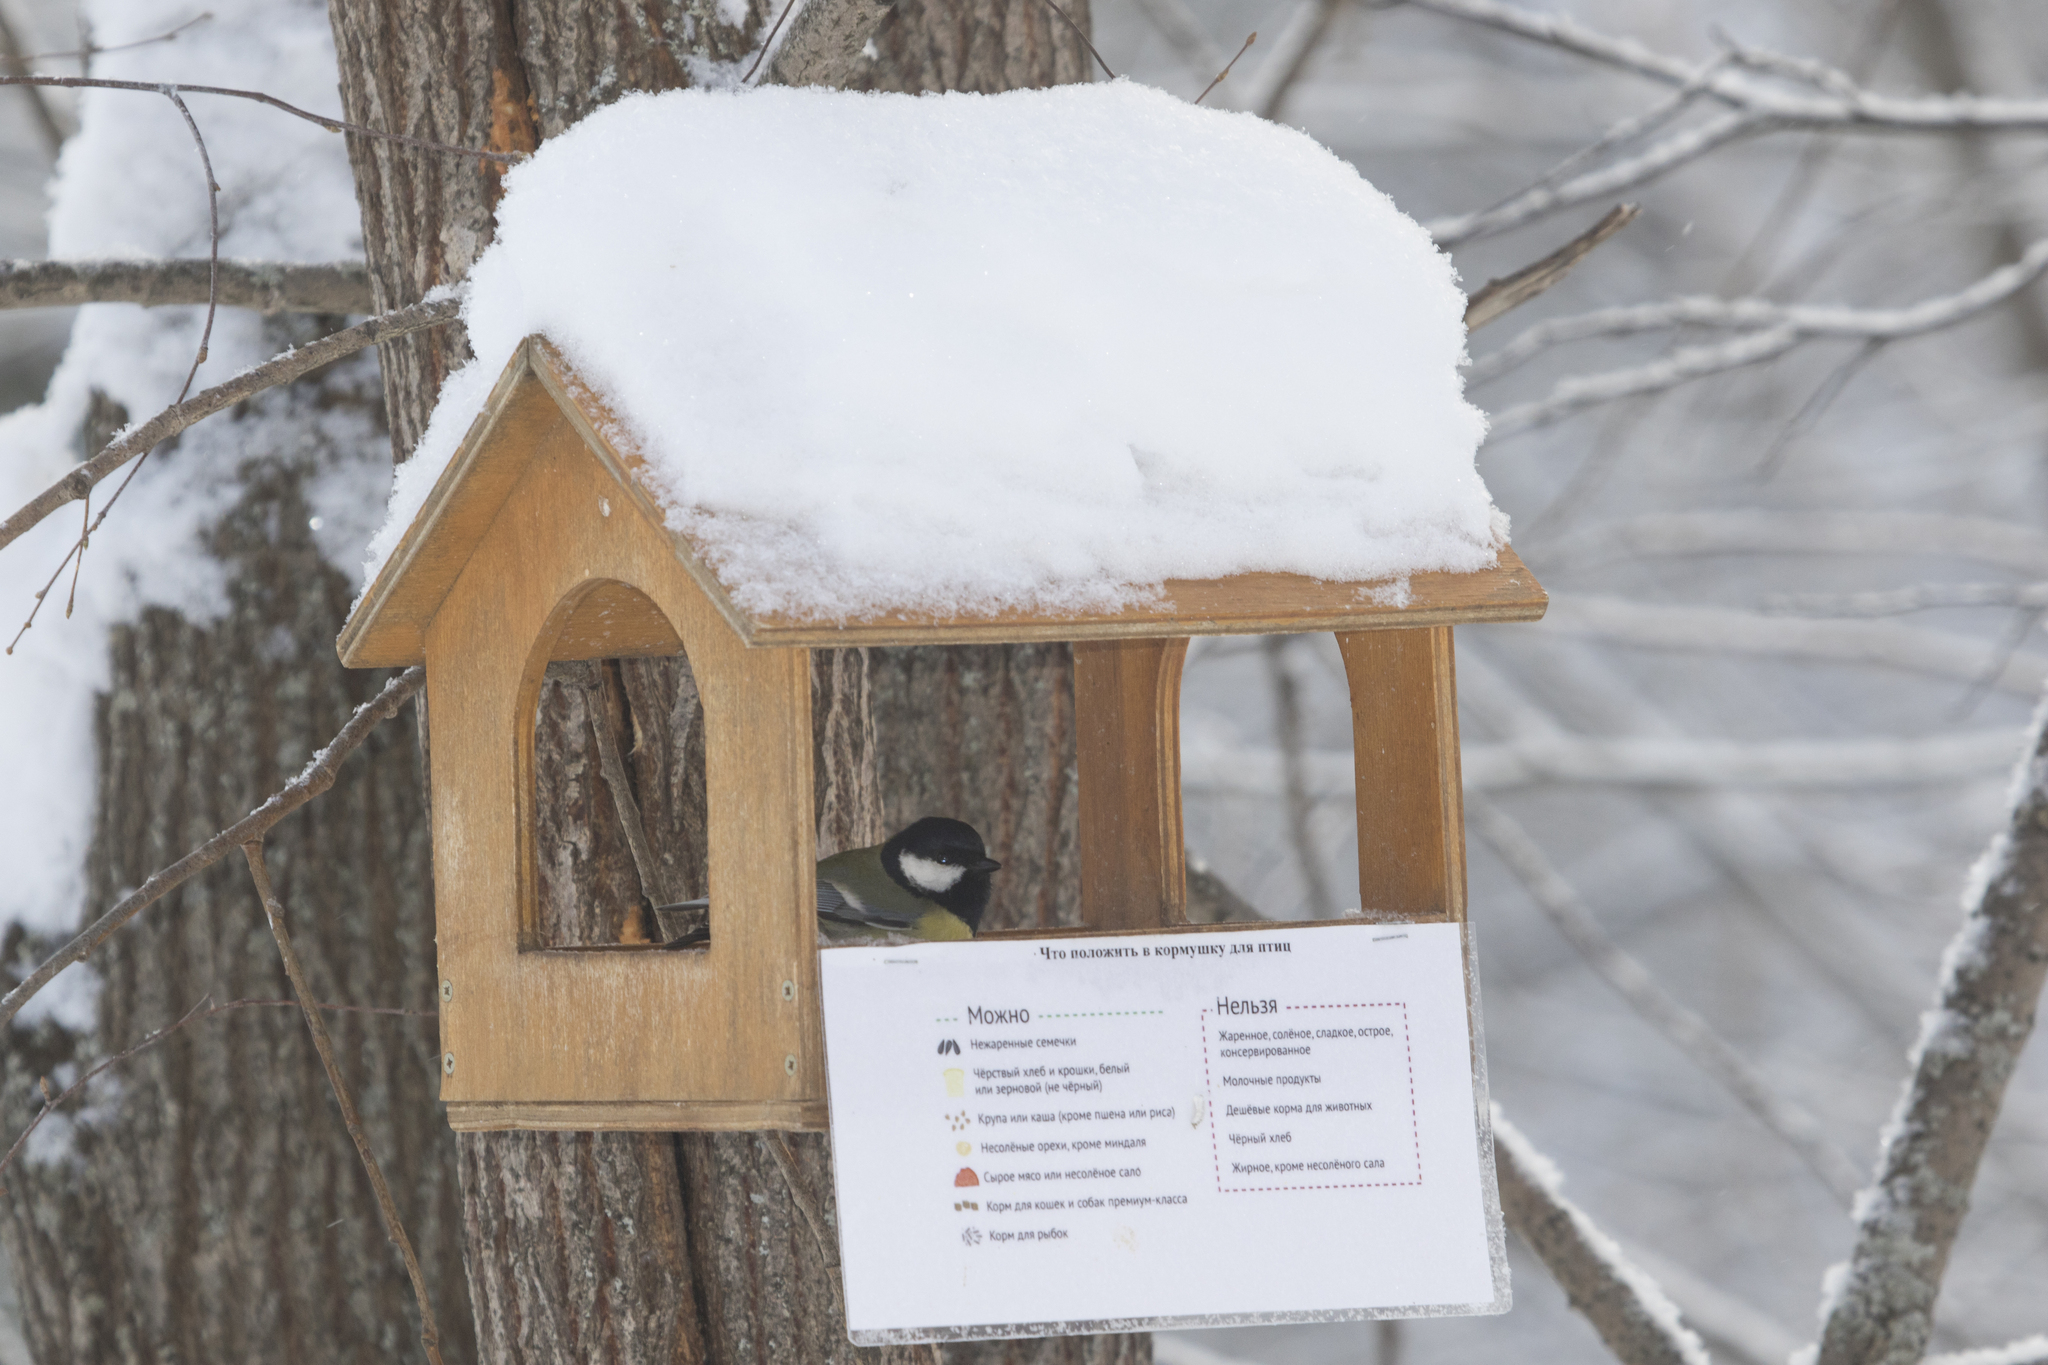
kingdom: Animalia
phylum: Chordata
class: Aves
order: Passeriformes
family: Paridae
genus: Parus
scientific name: Parus major
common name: Great tit
